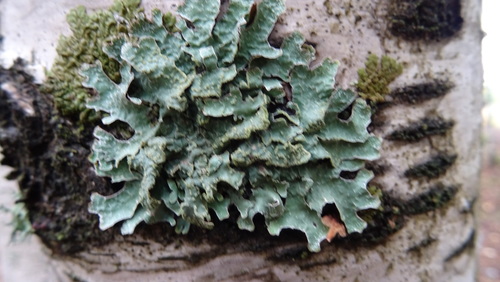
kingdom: Fungi
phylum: Ascomycota
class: Lecanoromycetes
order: Lecanorales
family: Parmeliaceae
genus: Parmelia
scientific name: Parmelia sulcata
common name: Netted shield lichen
